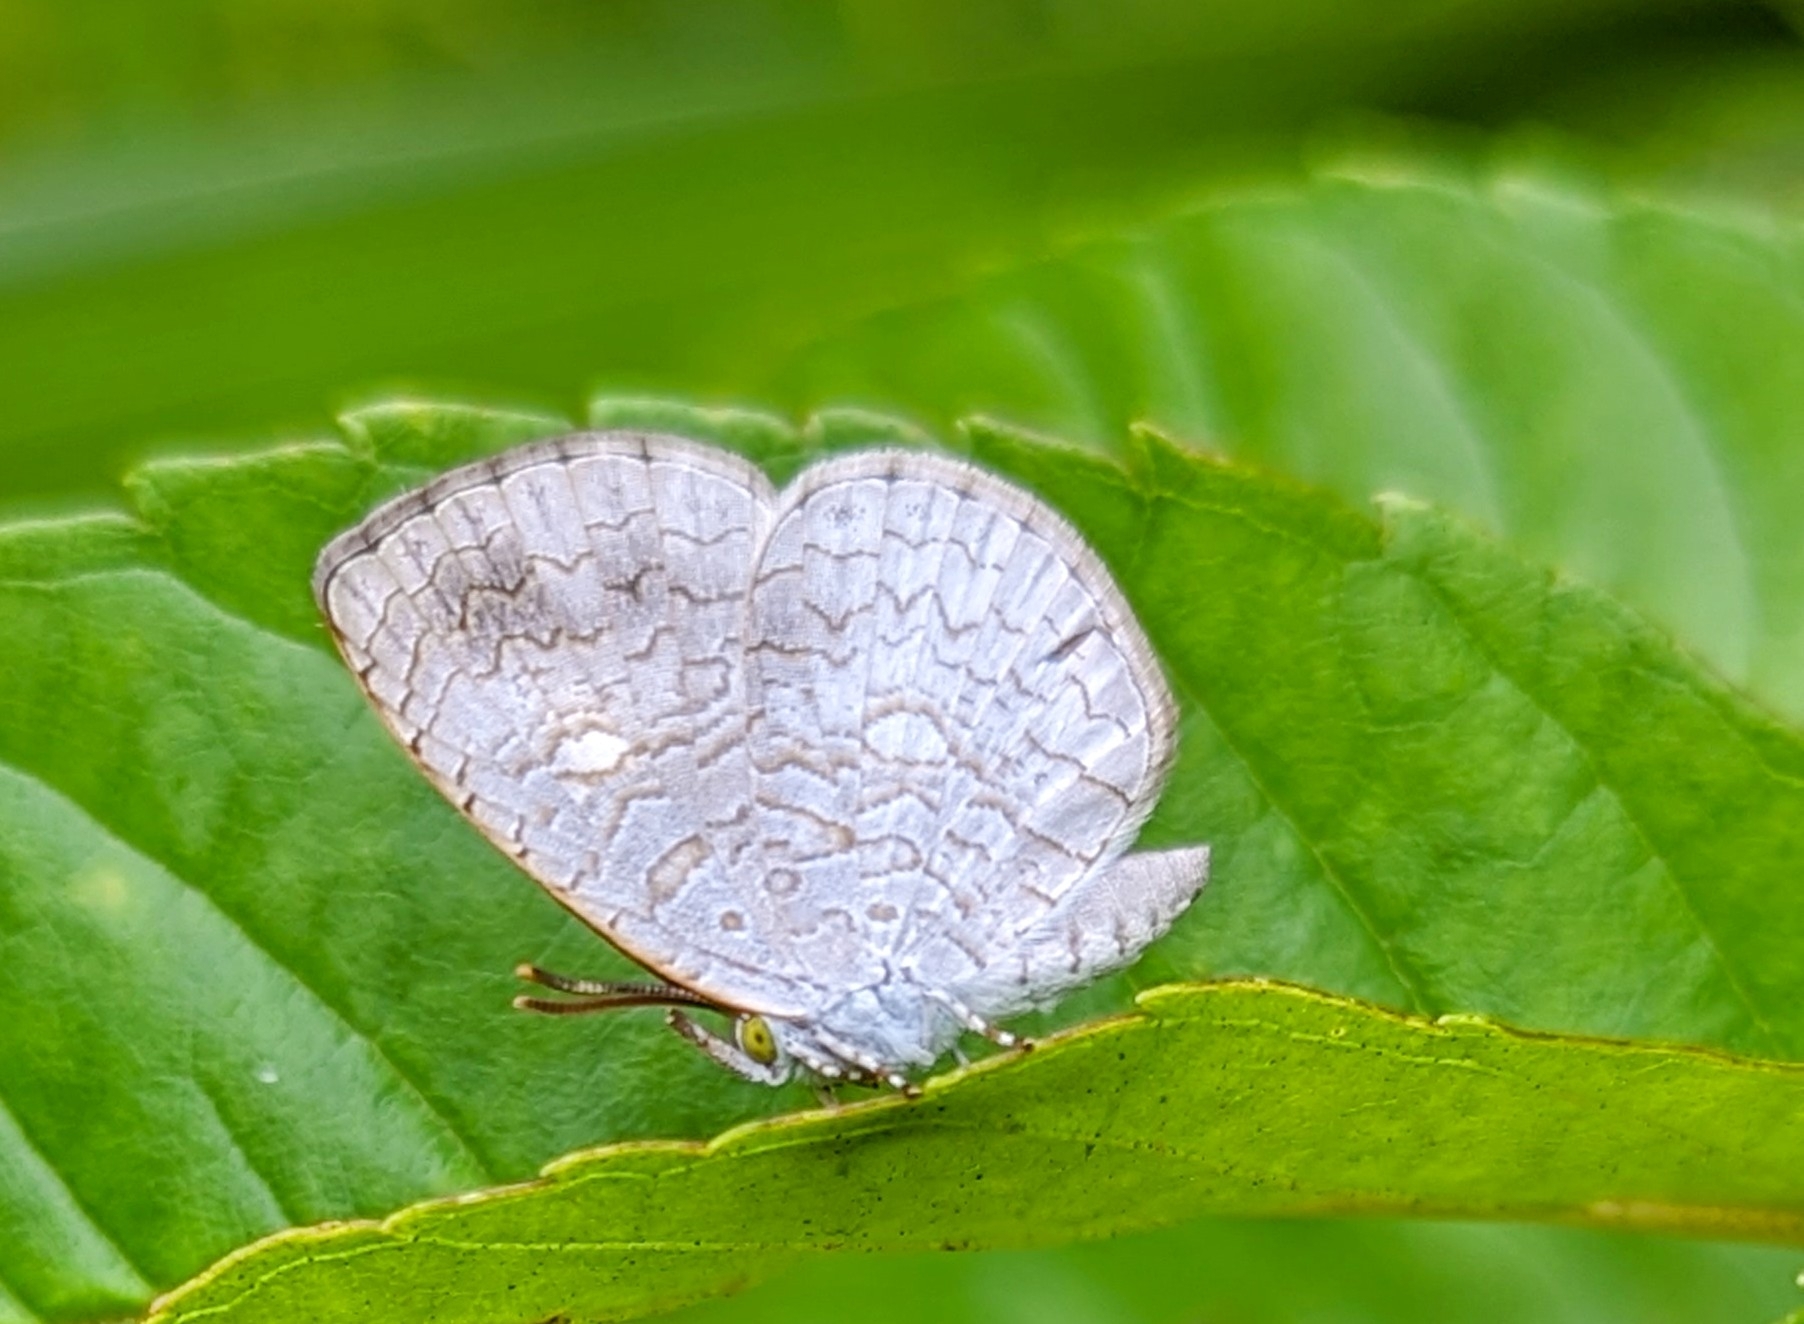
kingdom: Animalia
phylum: Arthropoda
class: Insecta
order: Lepidoptera
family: Lycaenidae
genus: Spalgis
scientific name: Spalgis epius
